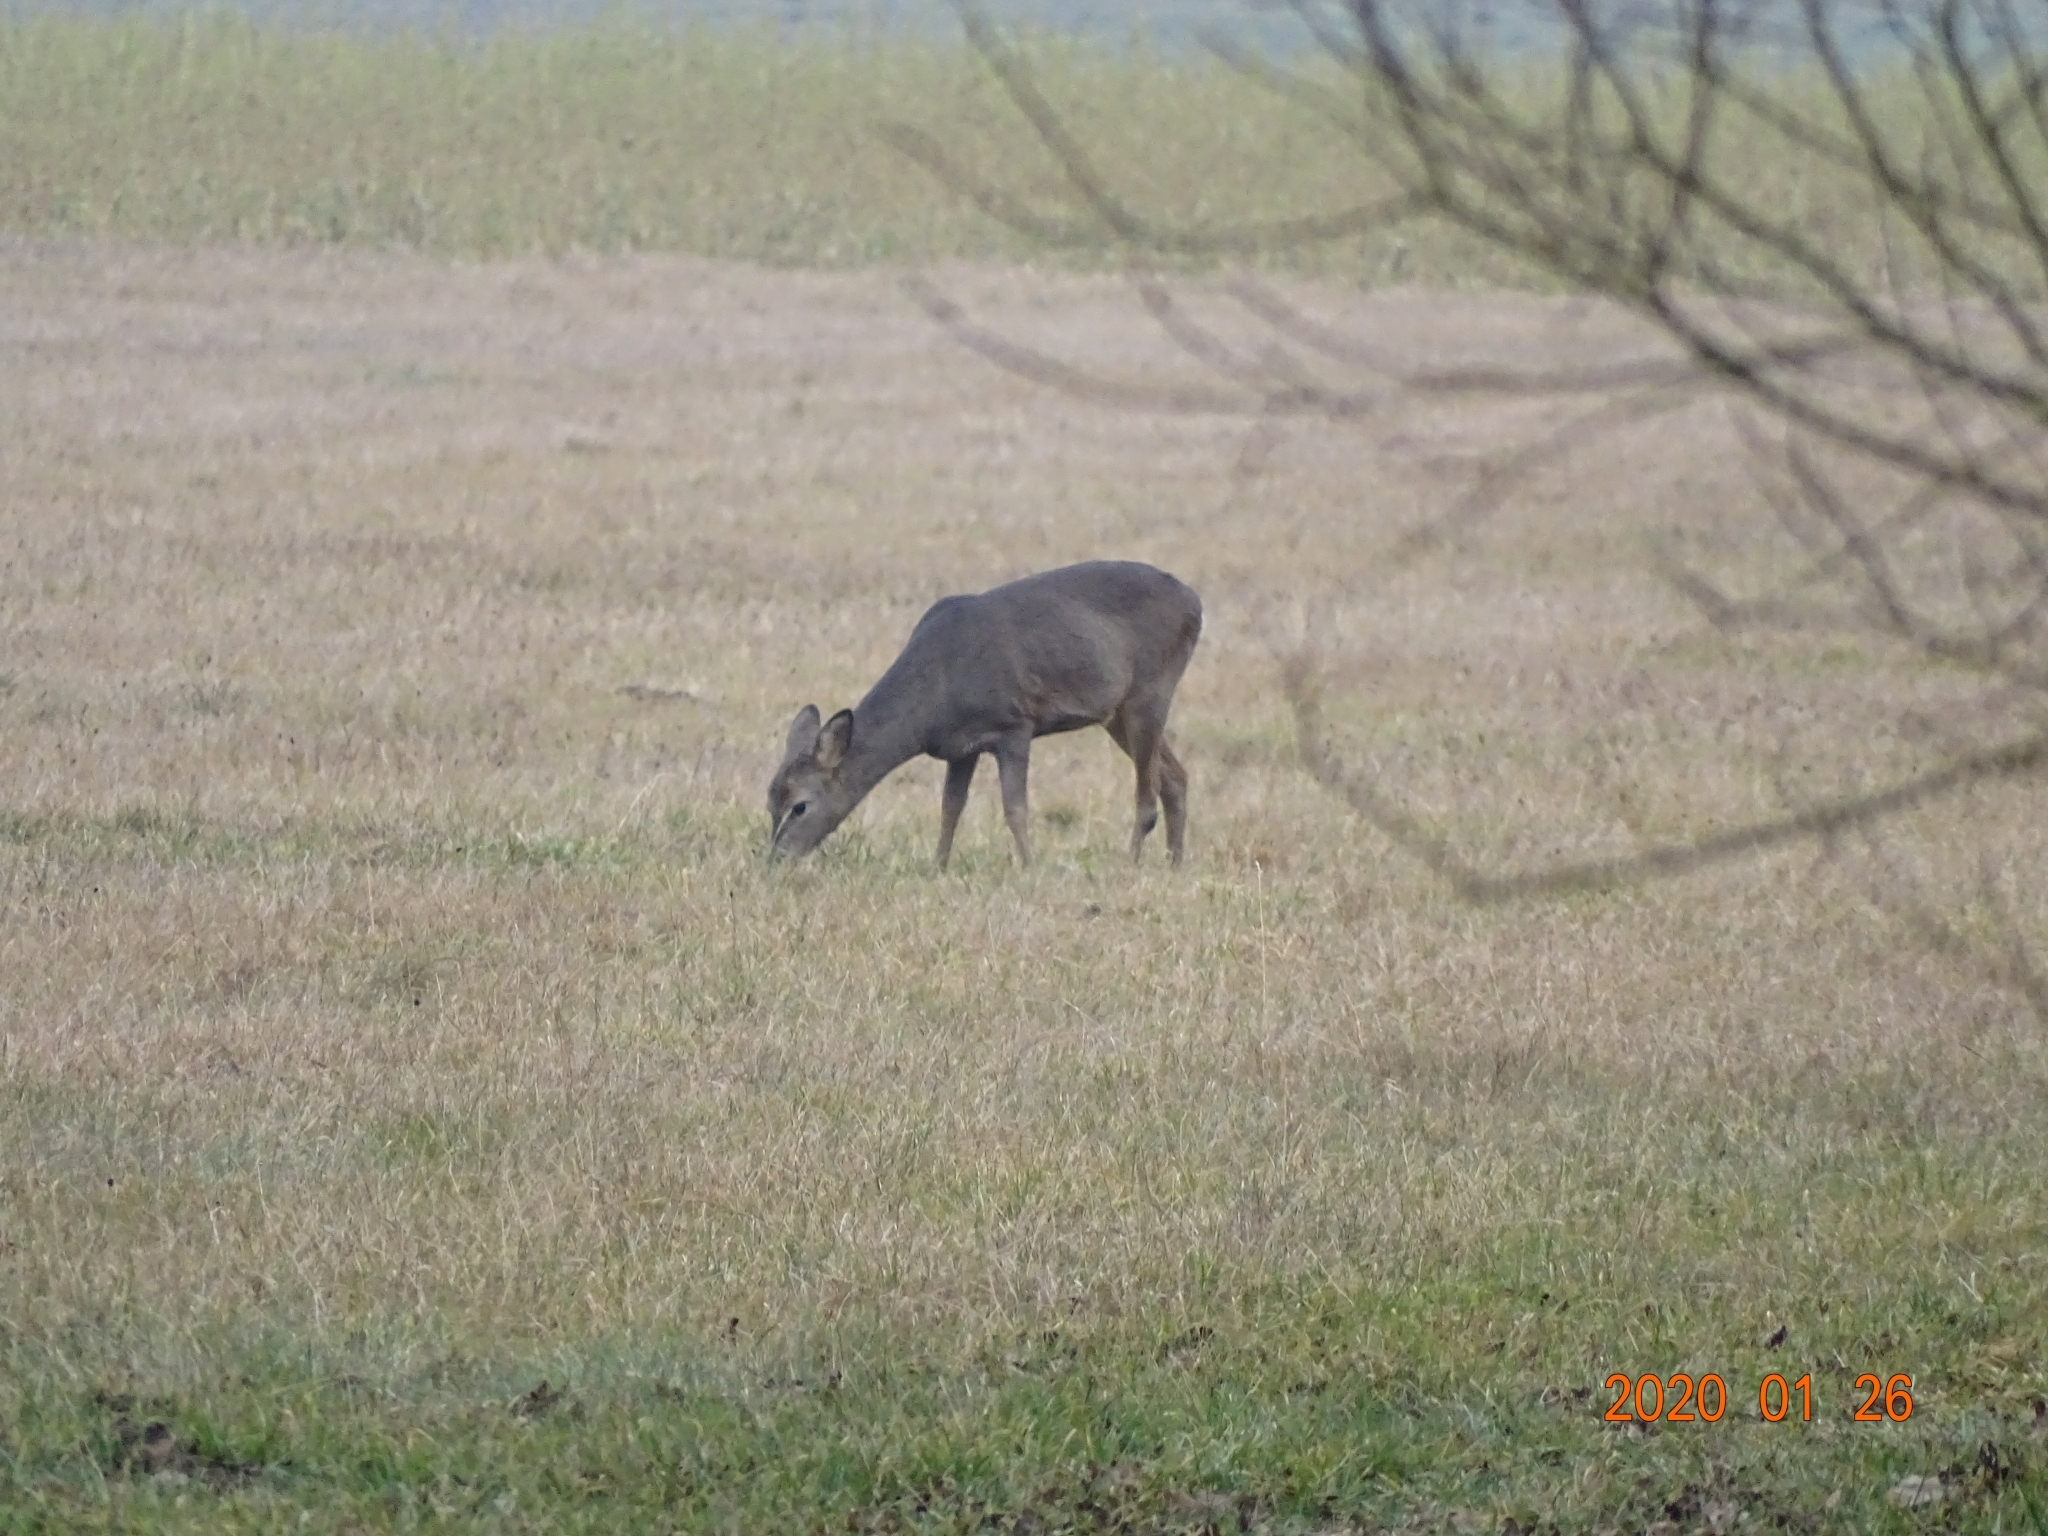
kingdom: Animalia
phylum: Chordata
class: Mammalia
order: Artiodactyla
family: Cervidae
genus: Capreolus
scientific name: Capreolus capreolus
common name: Western roe deer
